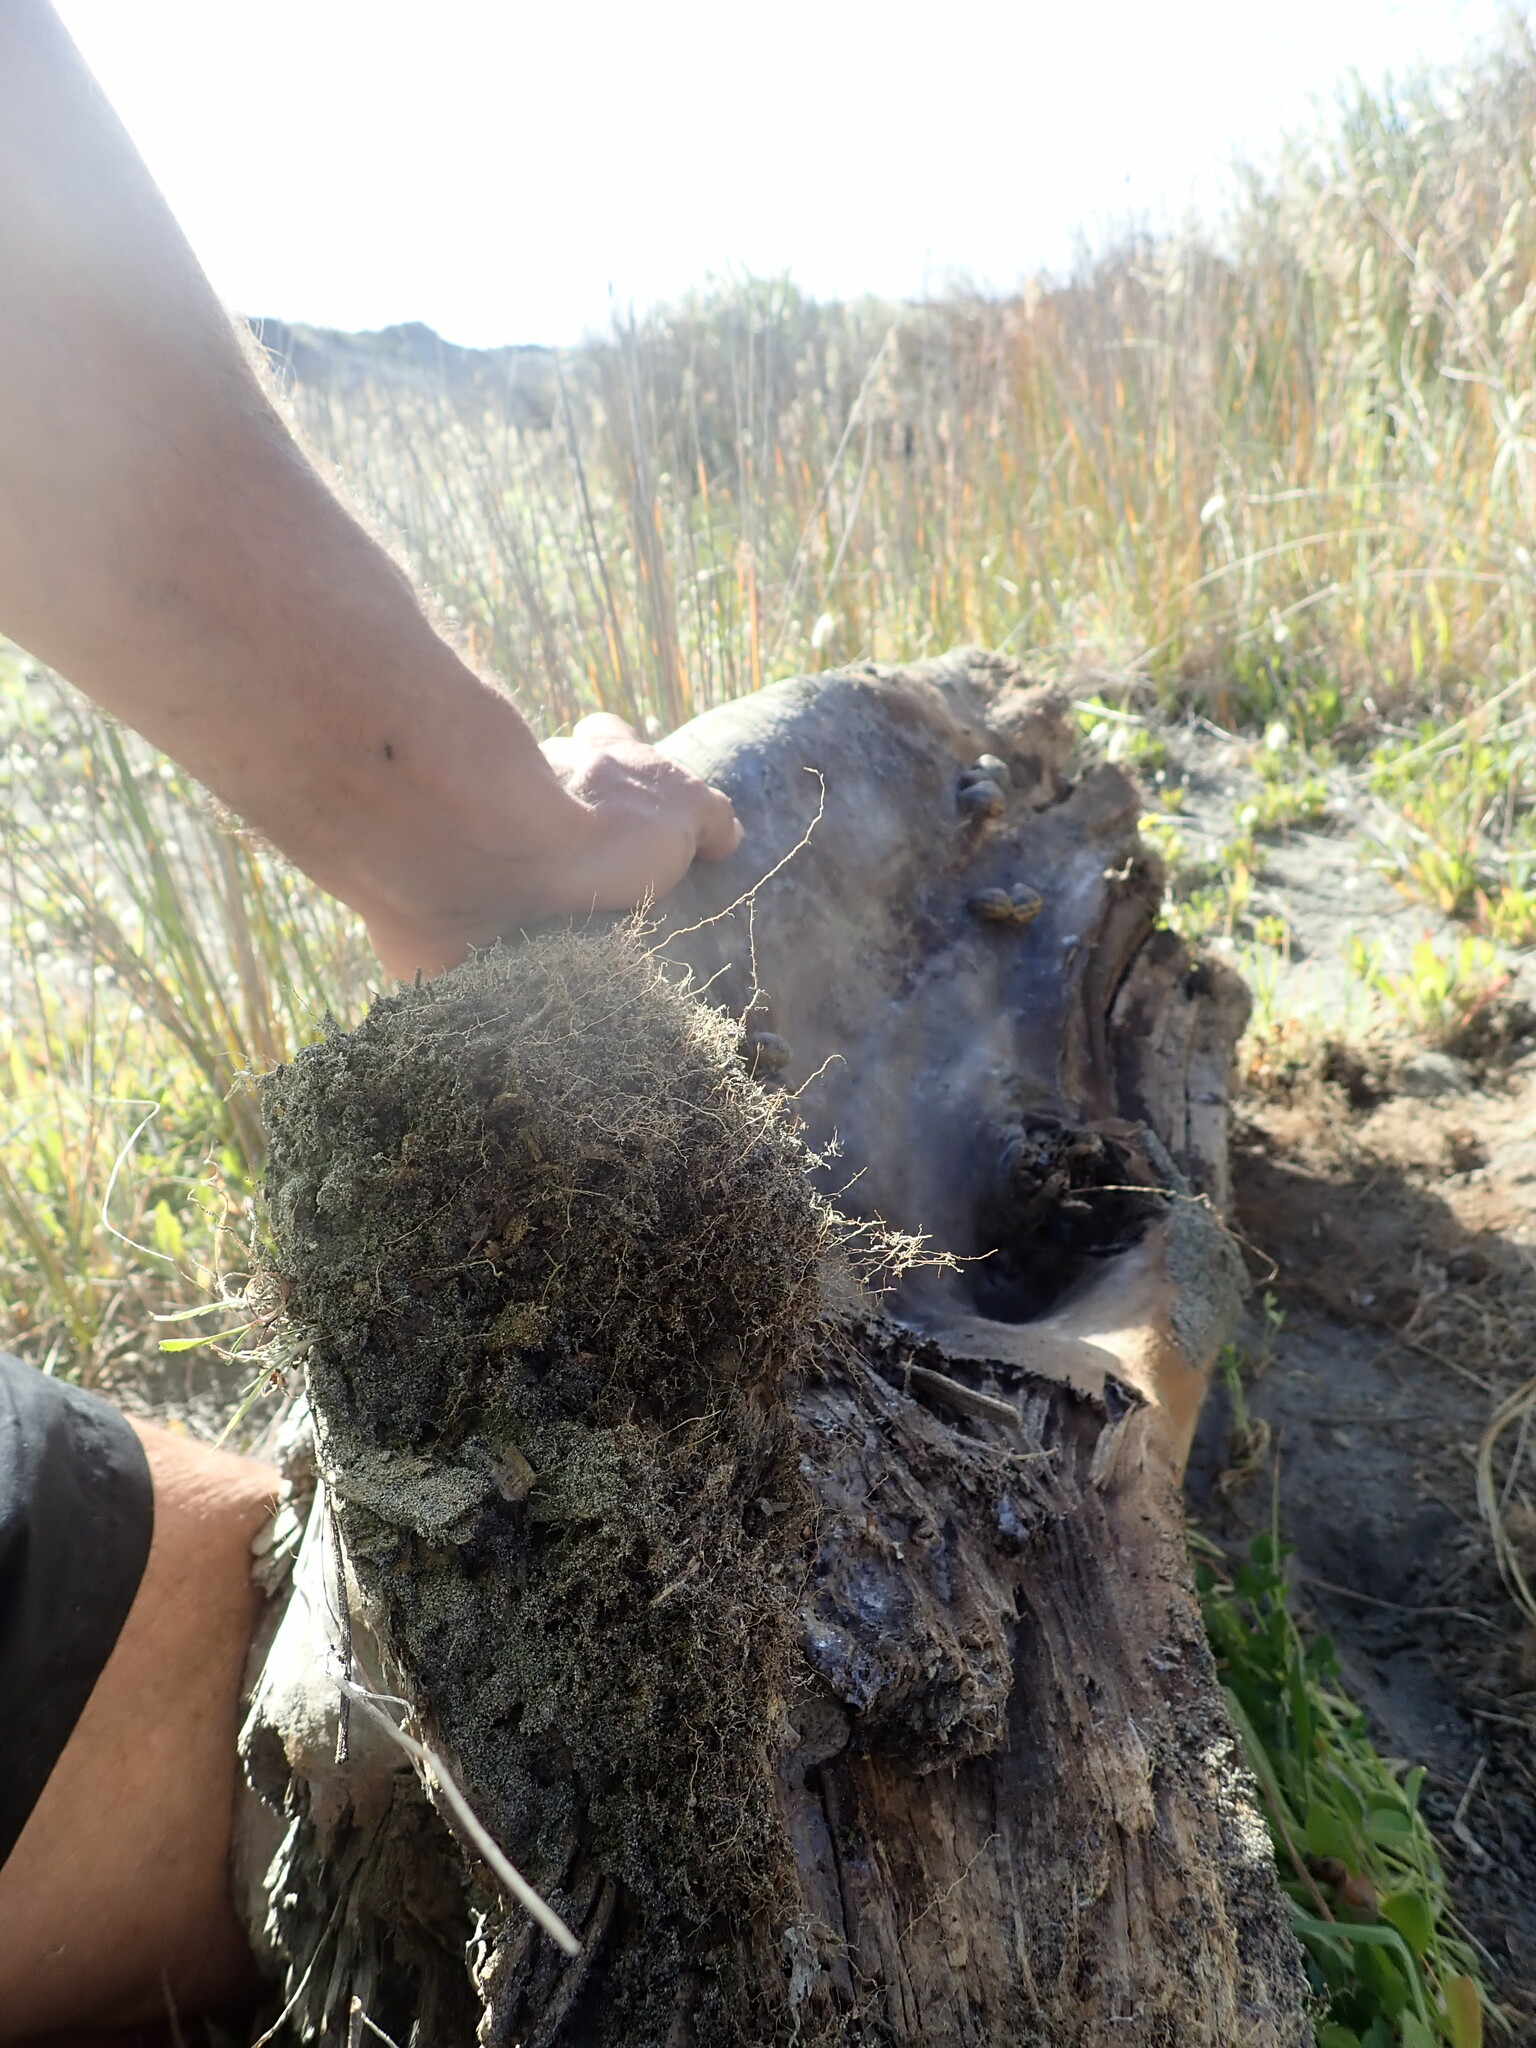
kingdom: Animalia
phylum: Mollusca
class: Gastropoda
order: Stylommatophora
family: Helicidae
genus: Cornu
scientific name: Cornu aspersum
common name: Brown garden snail
